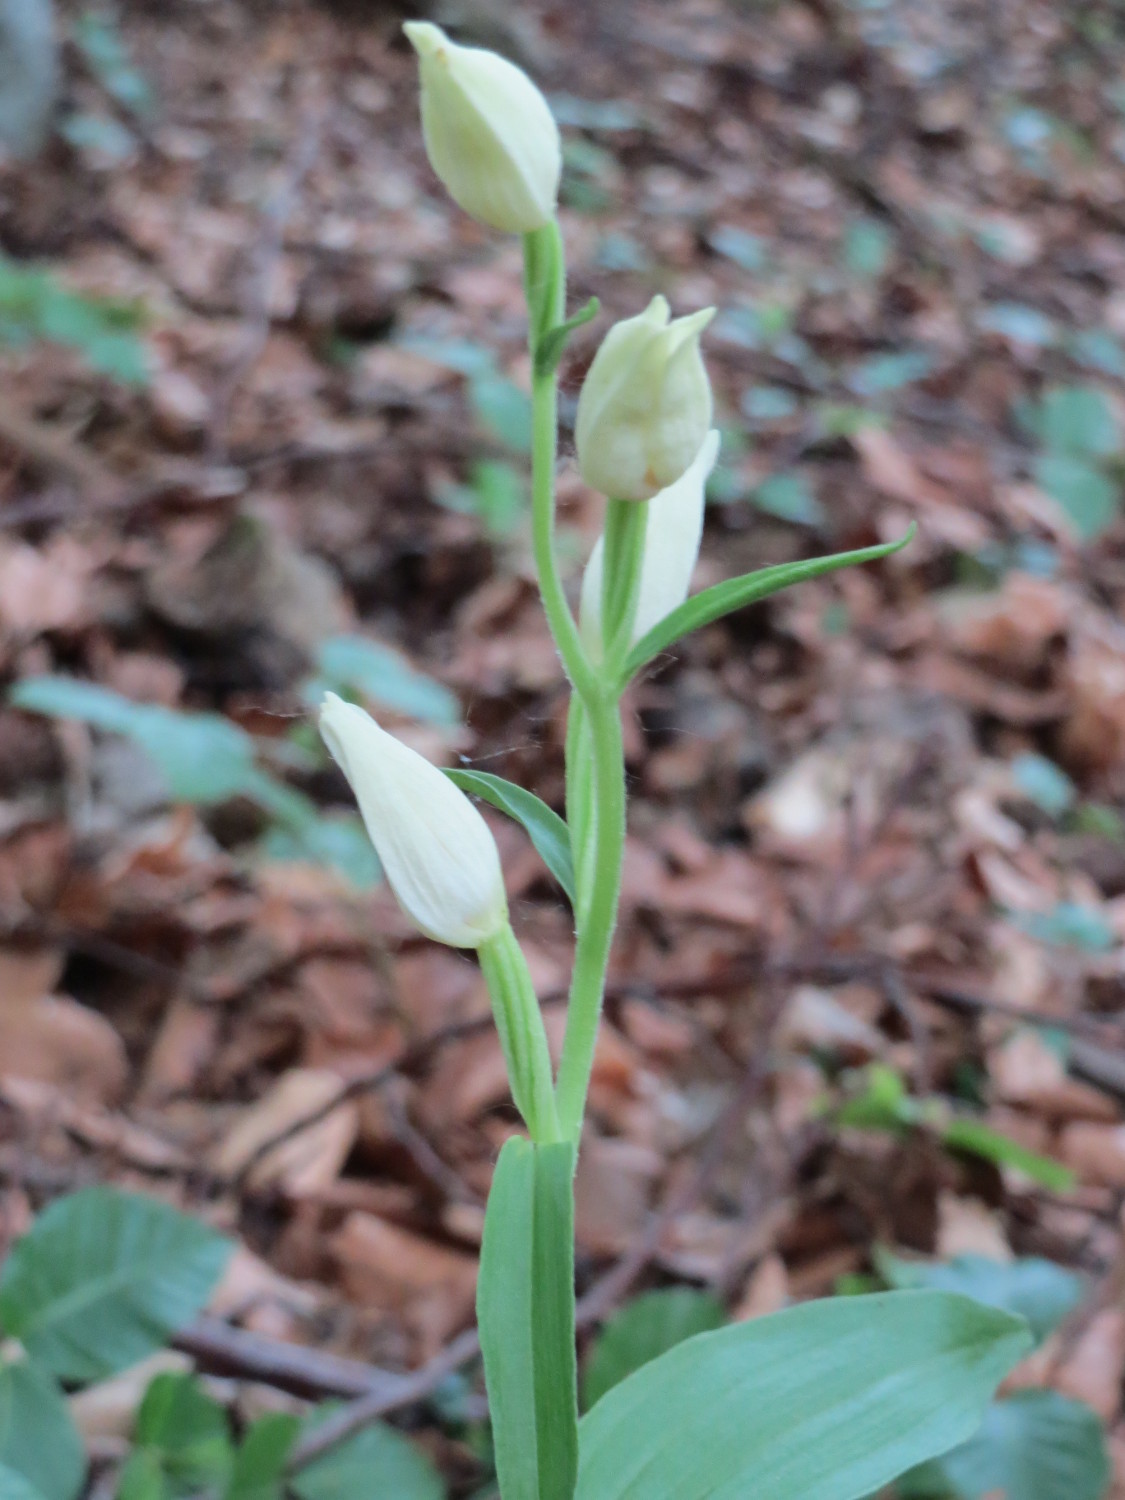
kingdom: Plantae
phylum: Tracheophyta
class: Liliopsida
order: Asparagales
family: Orchidaceae
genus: Cephalanthera
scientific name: Cephalanthera damasonium
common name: White helleborine
